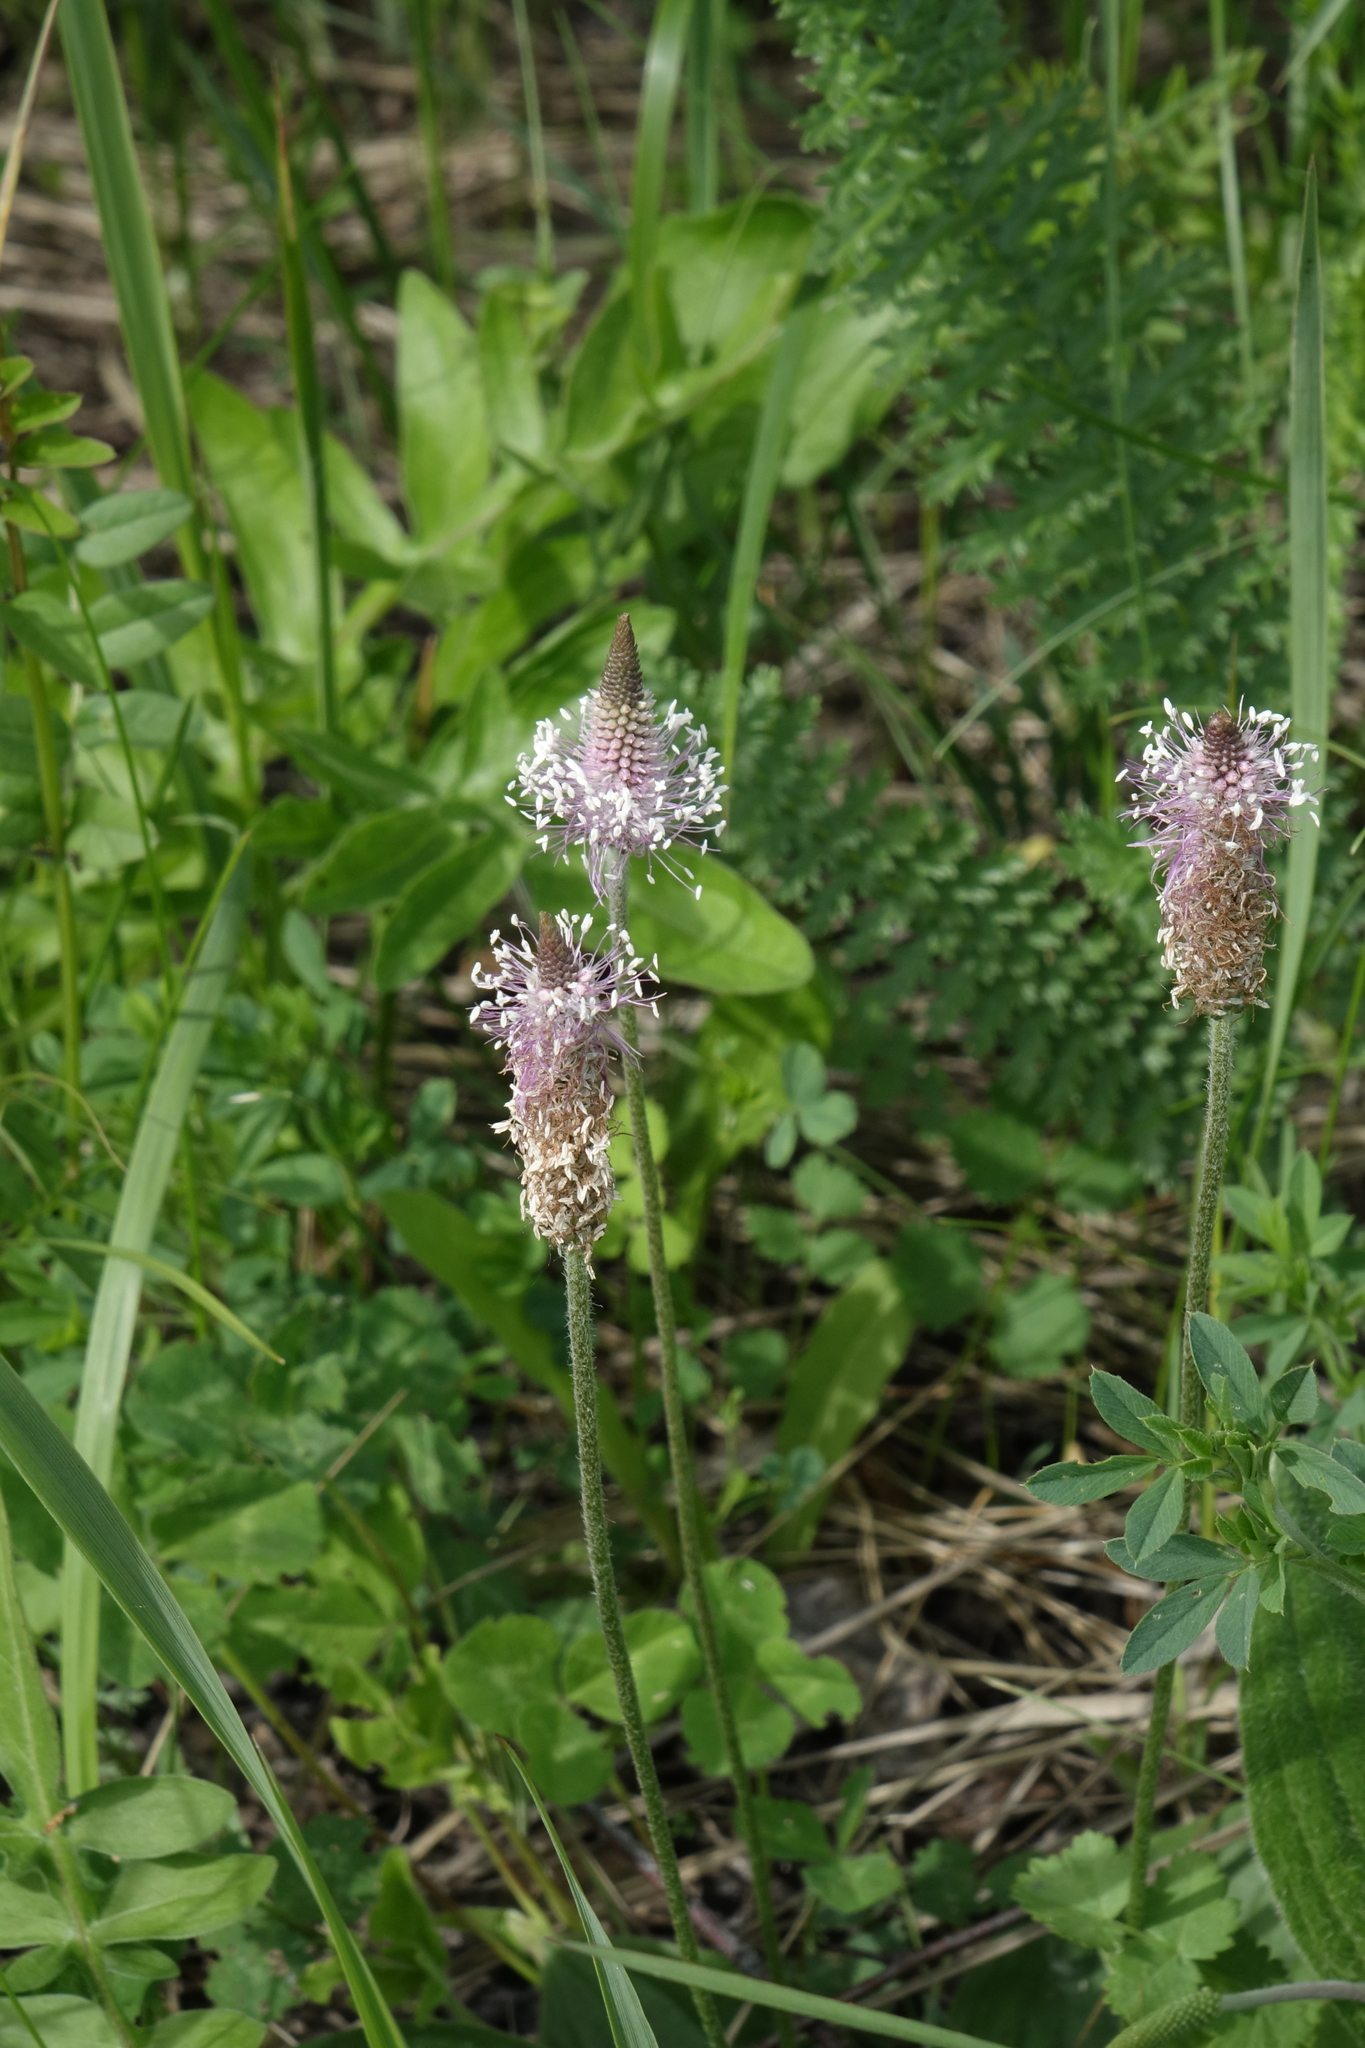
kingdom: Plantae
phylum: Tracheophyta
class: Magnoliopsida
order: Lamiales
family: Plantaginaceae
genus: Plantago
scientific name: Plantago media
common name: Hoary plantain
